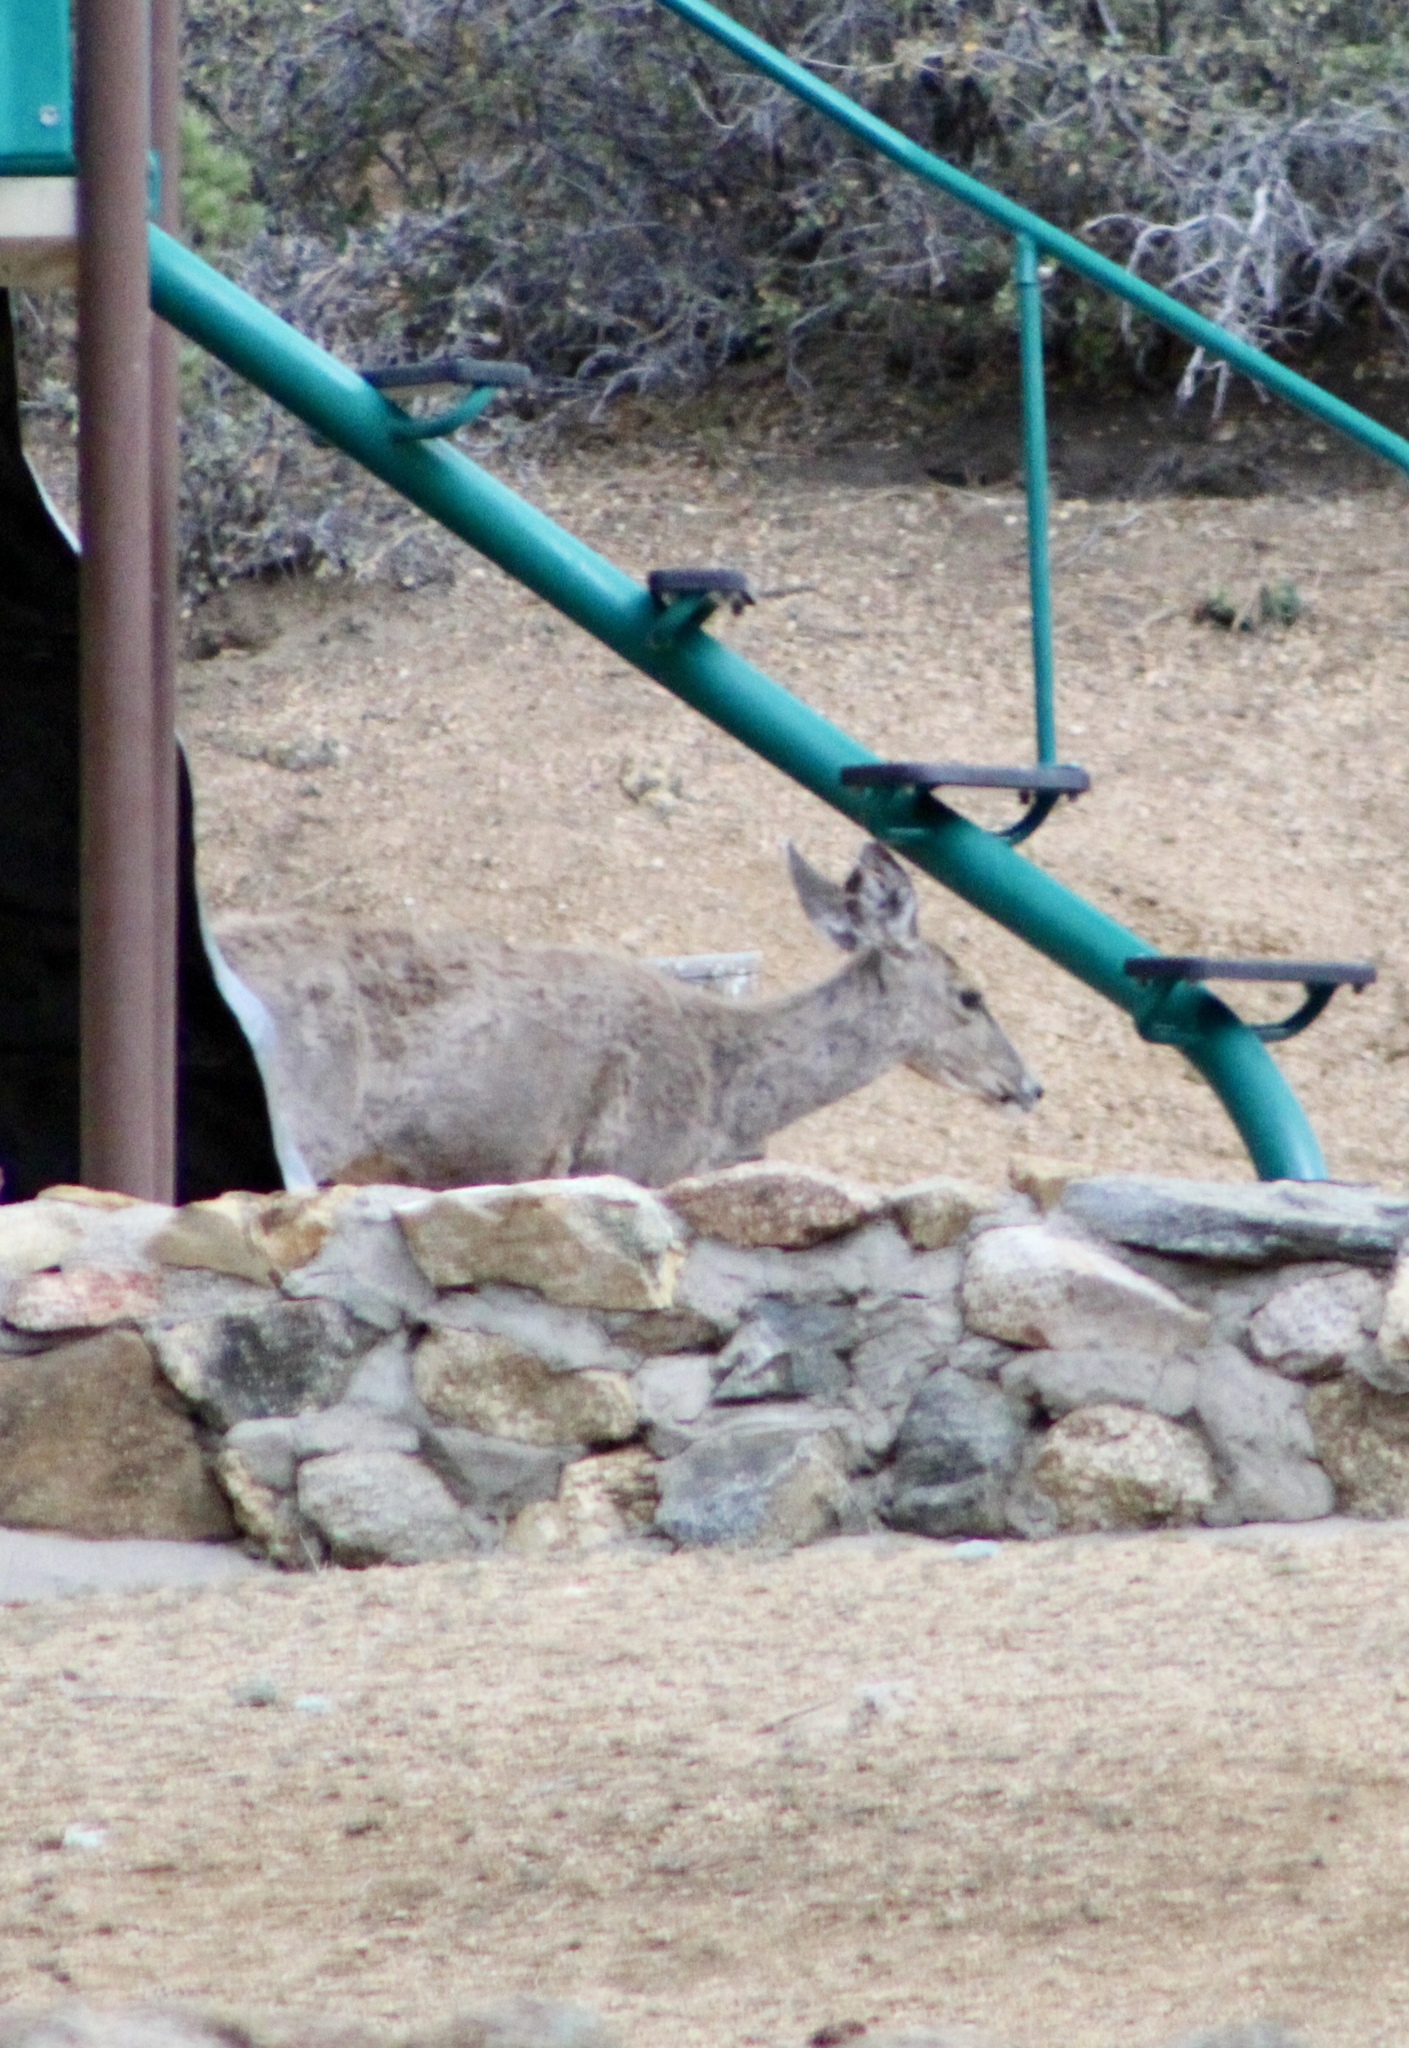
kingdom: Animalia
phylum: Chordata
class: Mammalia
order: Artiodactyla
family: Cervidae
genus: Odocoileus
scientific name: Odocoileus hemionus
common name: Mule deer
